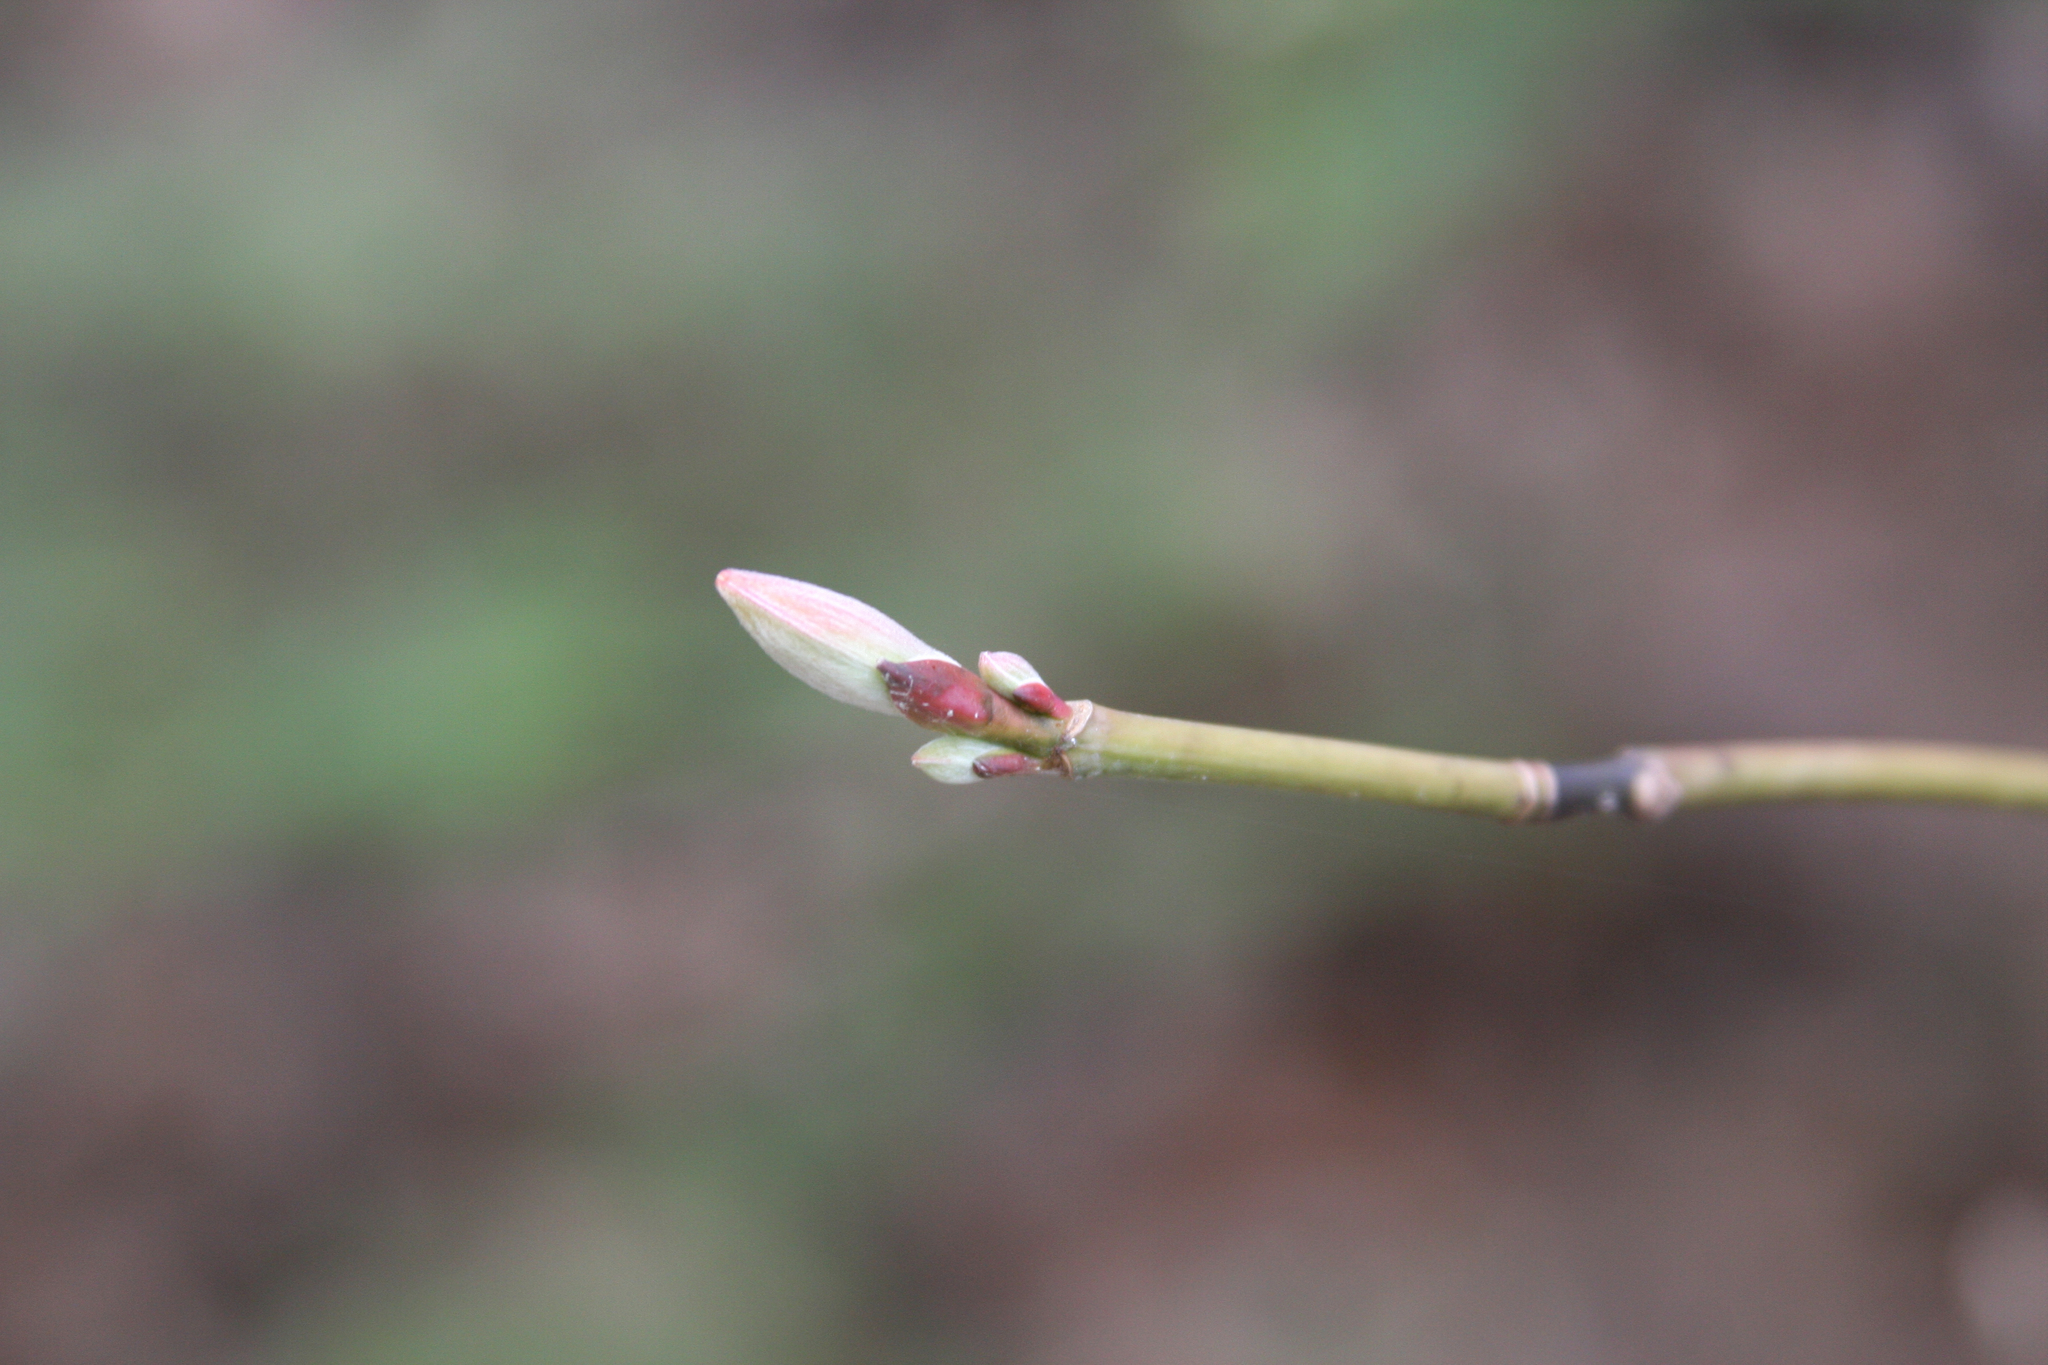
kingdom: Plantae
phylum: Tracheophyta
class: Magnoliopsida
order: Sapindales
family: Sapindaceae
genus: Acer
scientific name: Acer pensylvanicum
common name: Moosewood
